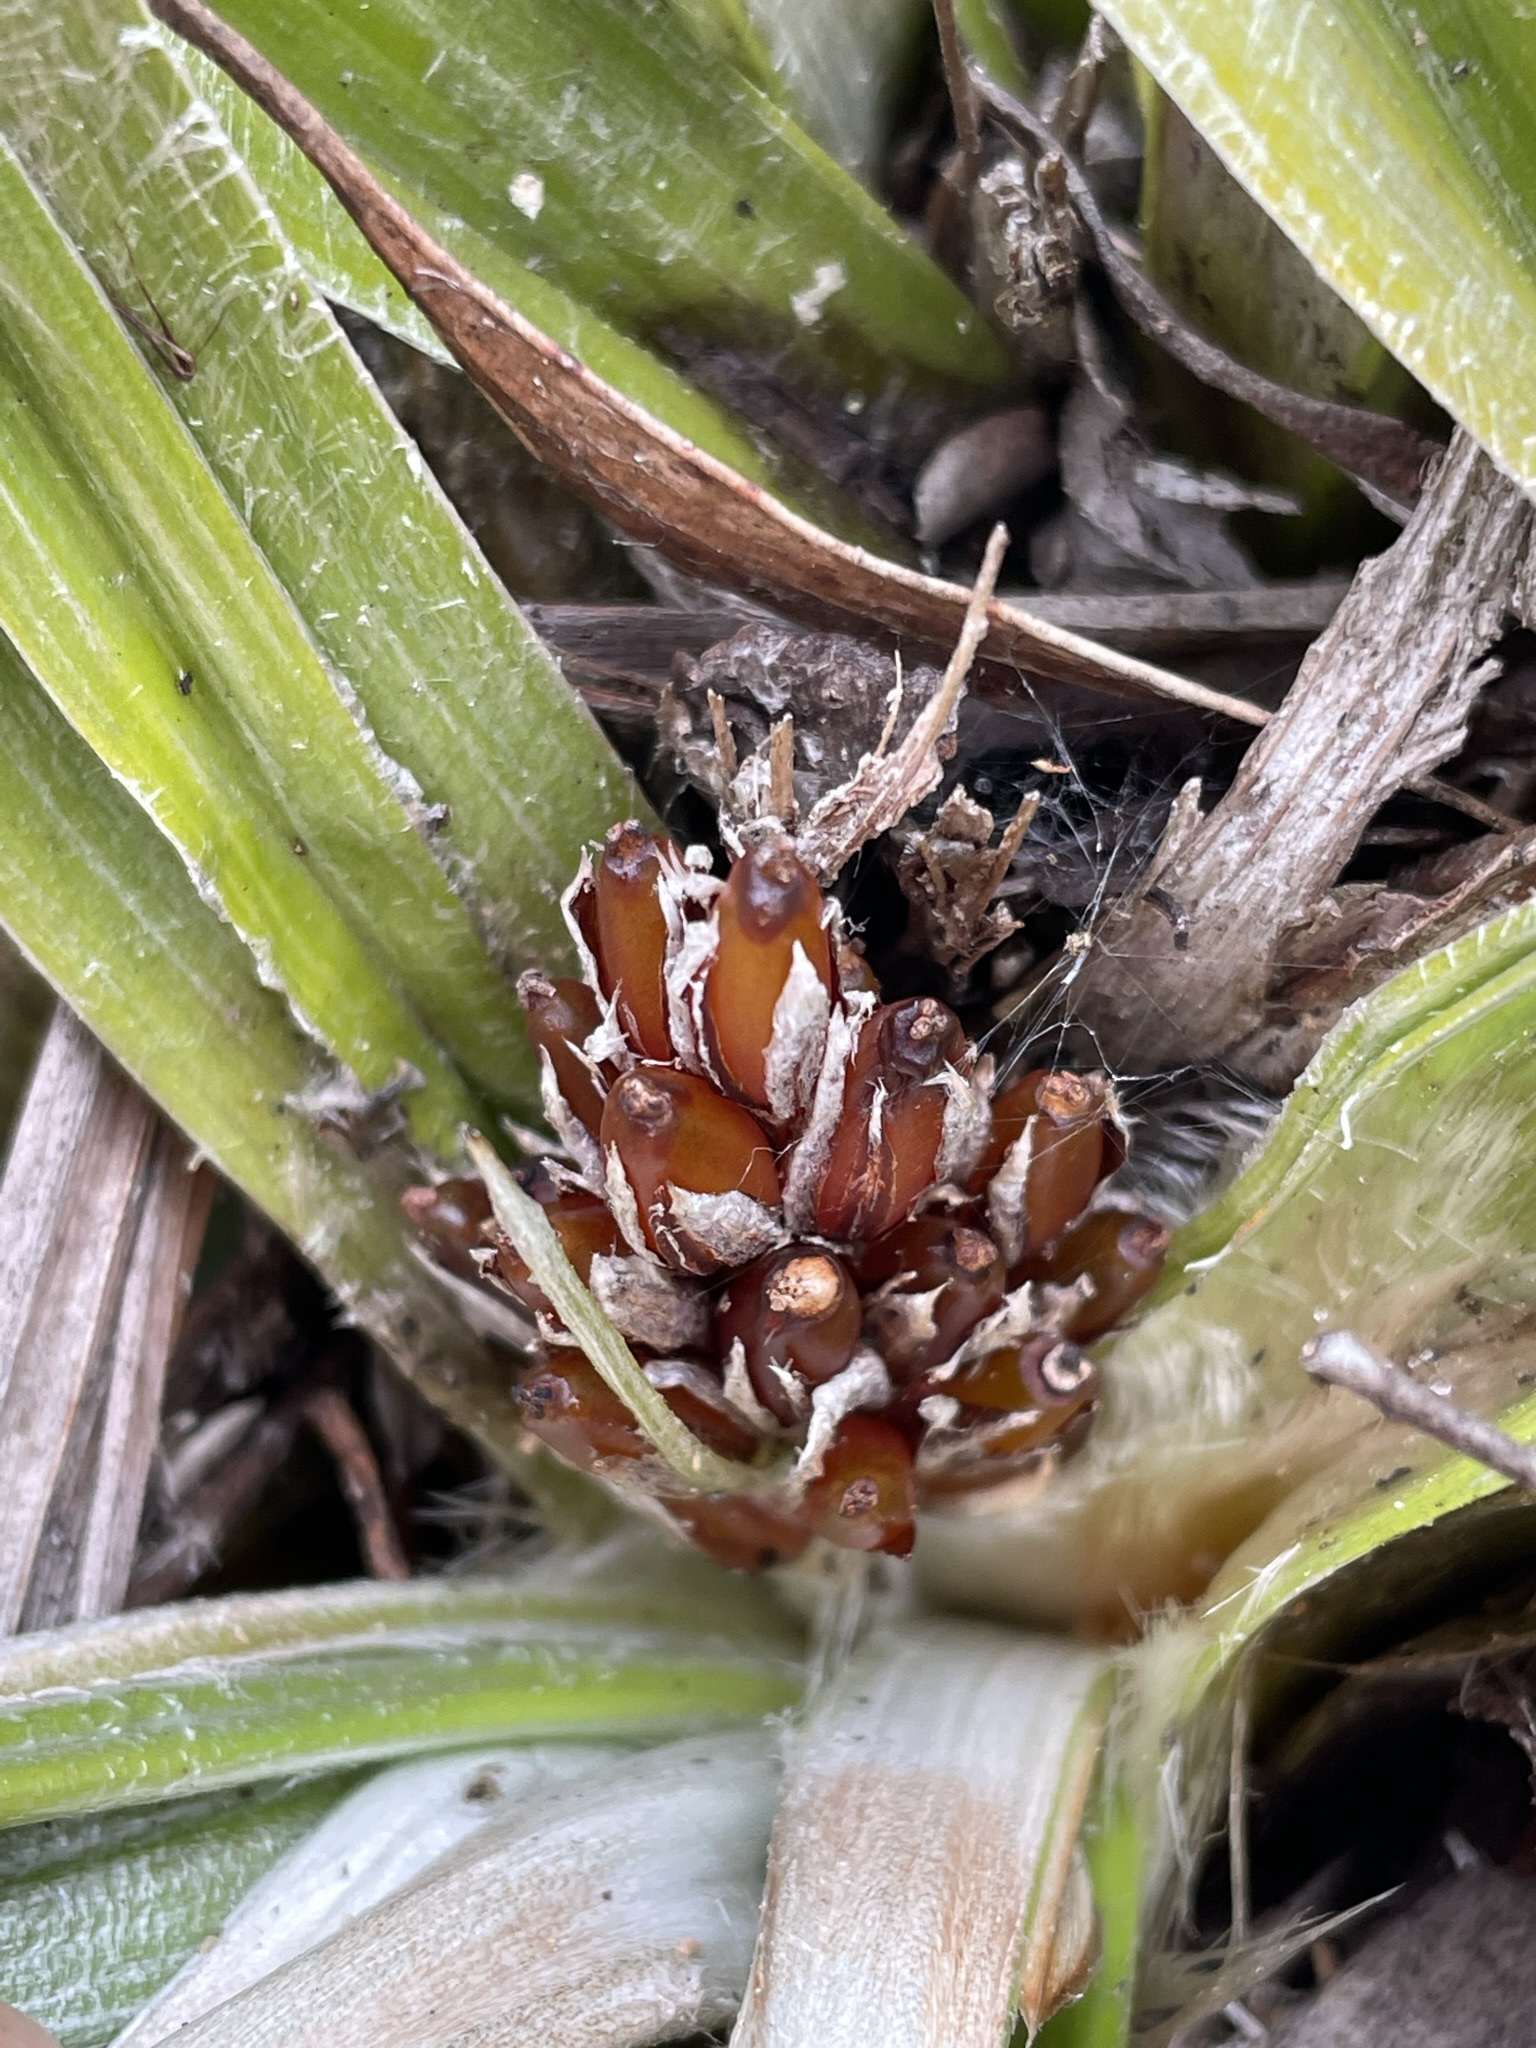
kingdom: Plantae
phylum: Tracheophyta
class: Liliopsida
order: Asparagales
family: Asteliaceae
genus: Astelia
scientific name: Astelia alpina
